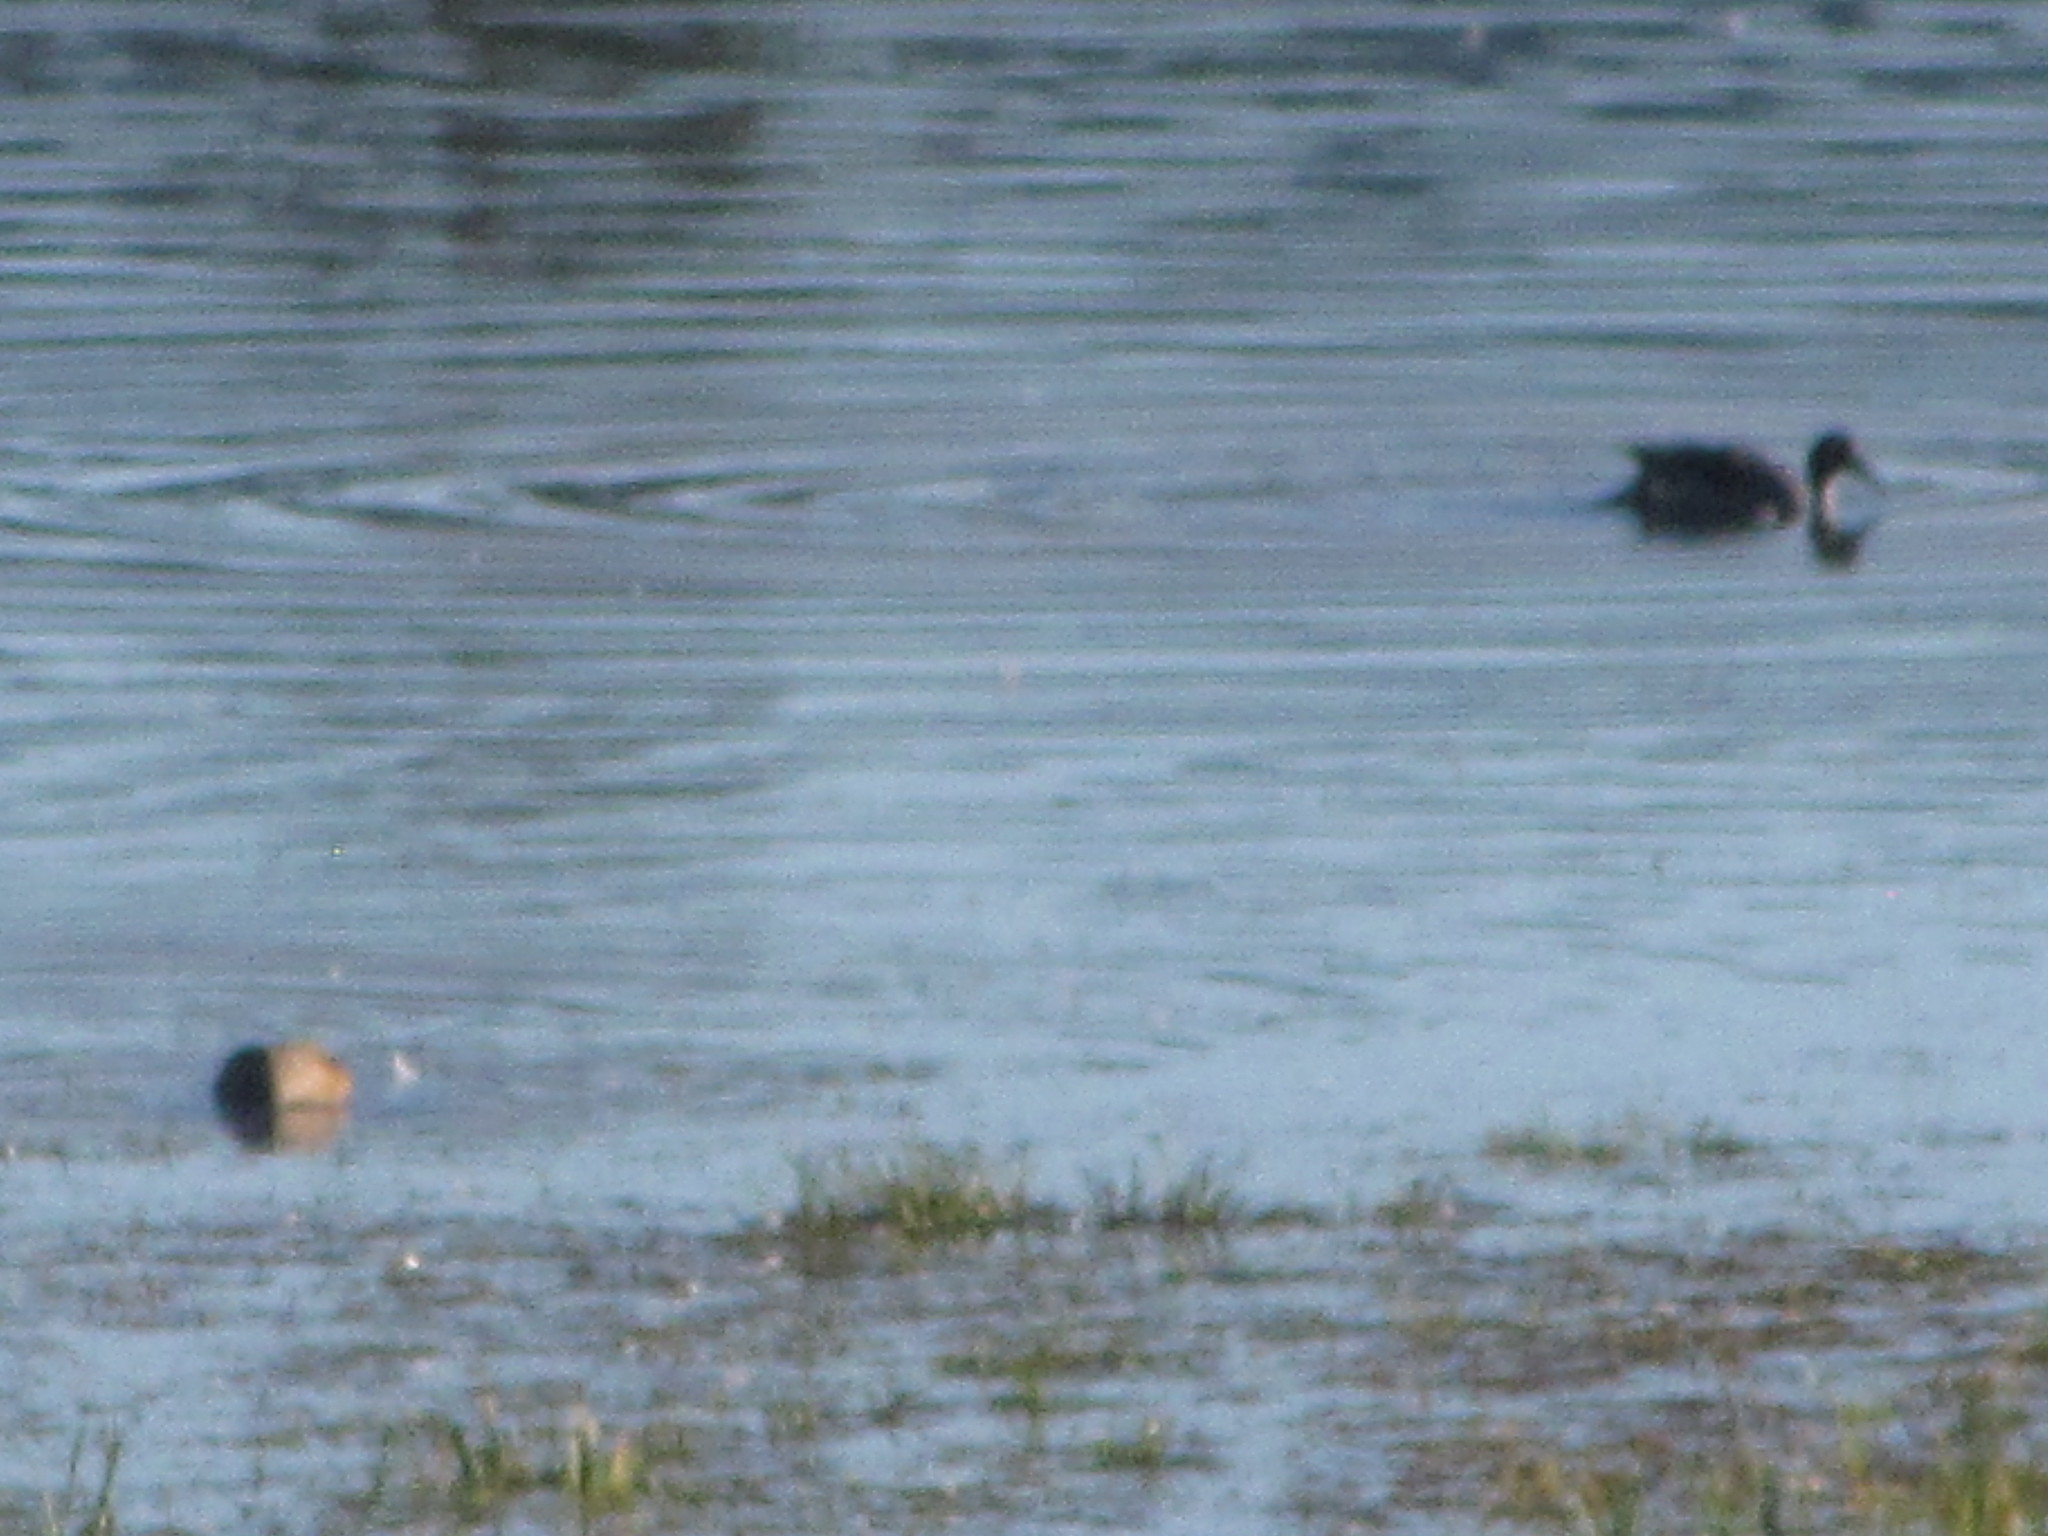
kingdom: Animalia
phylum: Chordata
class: Aves
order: Anseriformes
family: Anatidae
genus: Anas
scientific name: Anas acuta
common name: Northern pintail
